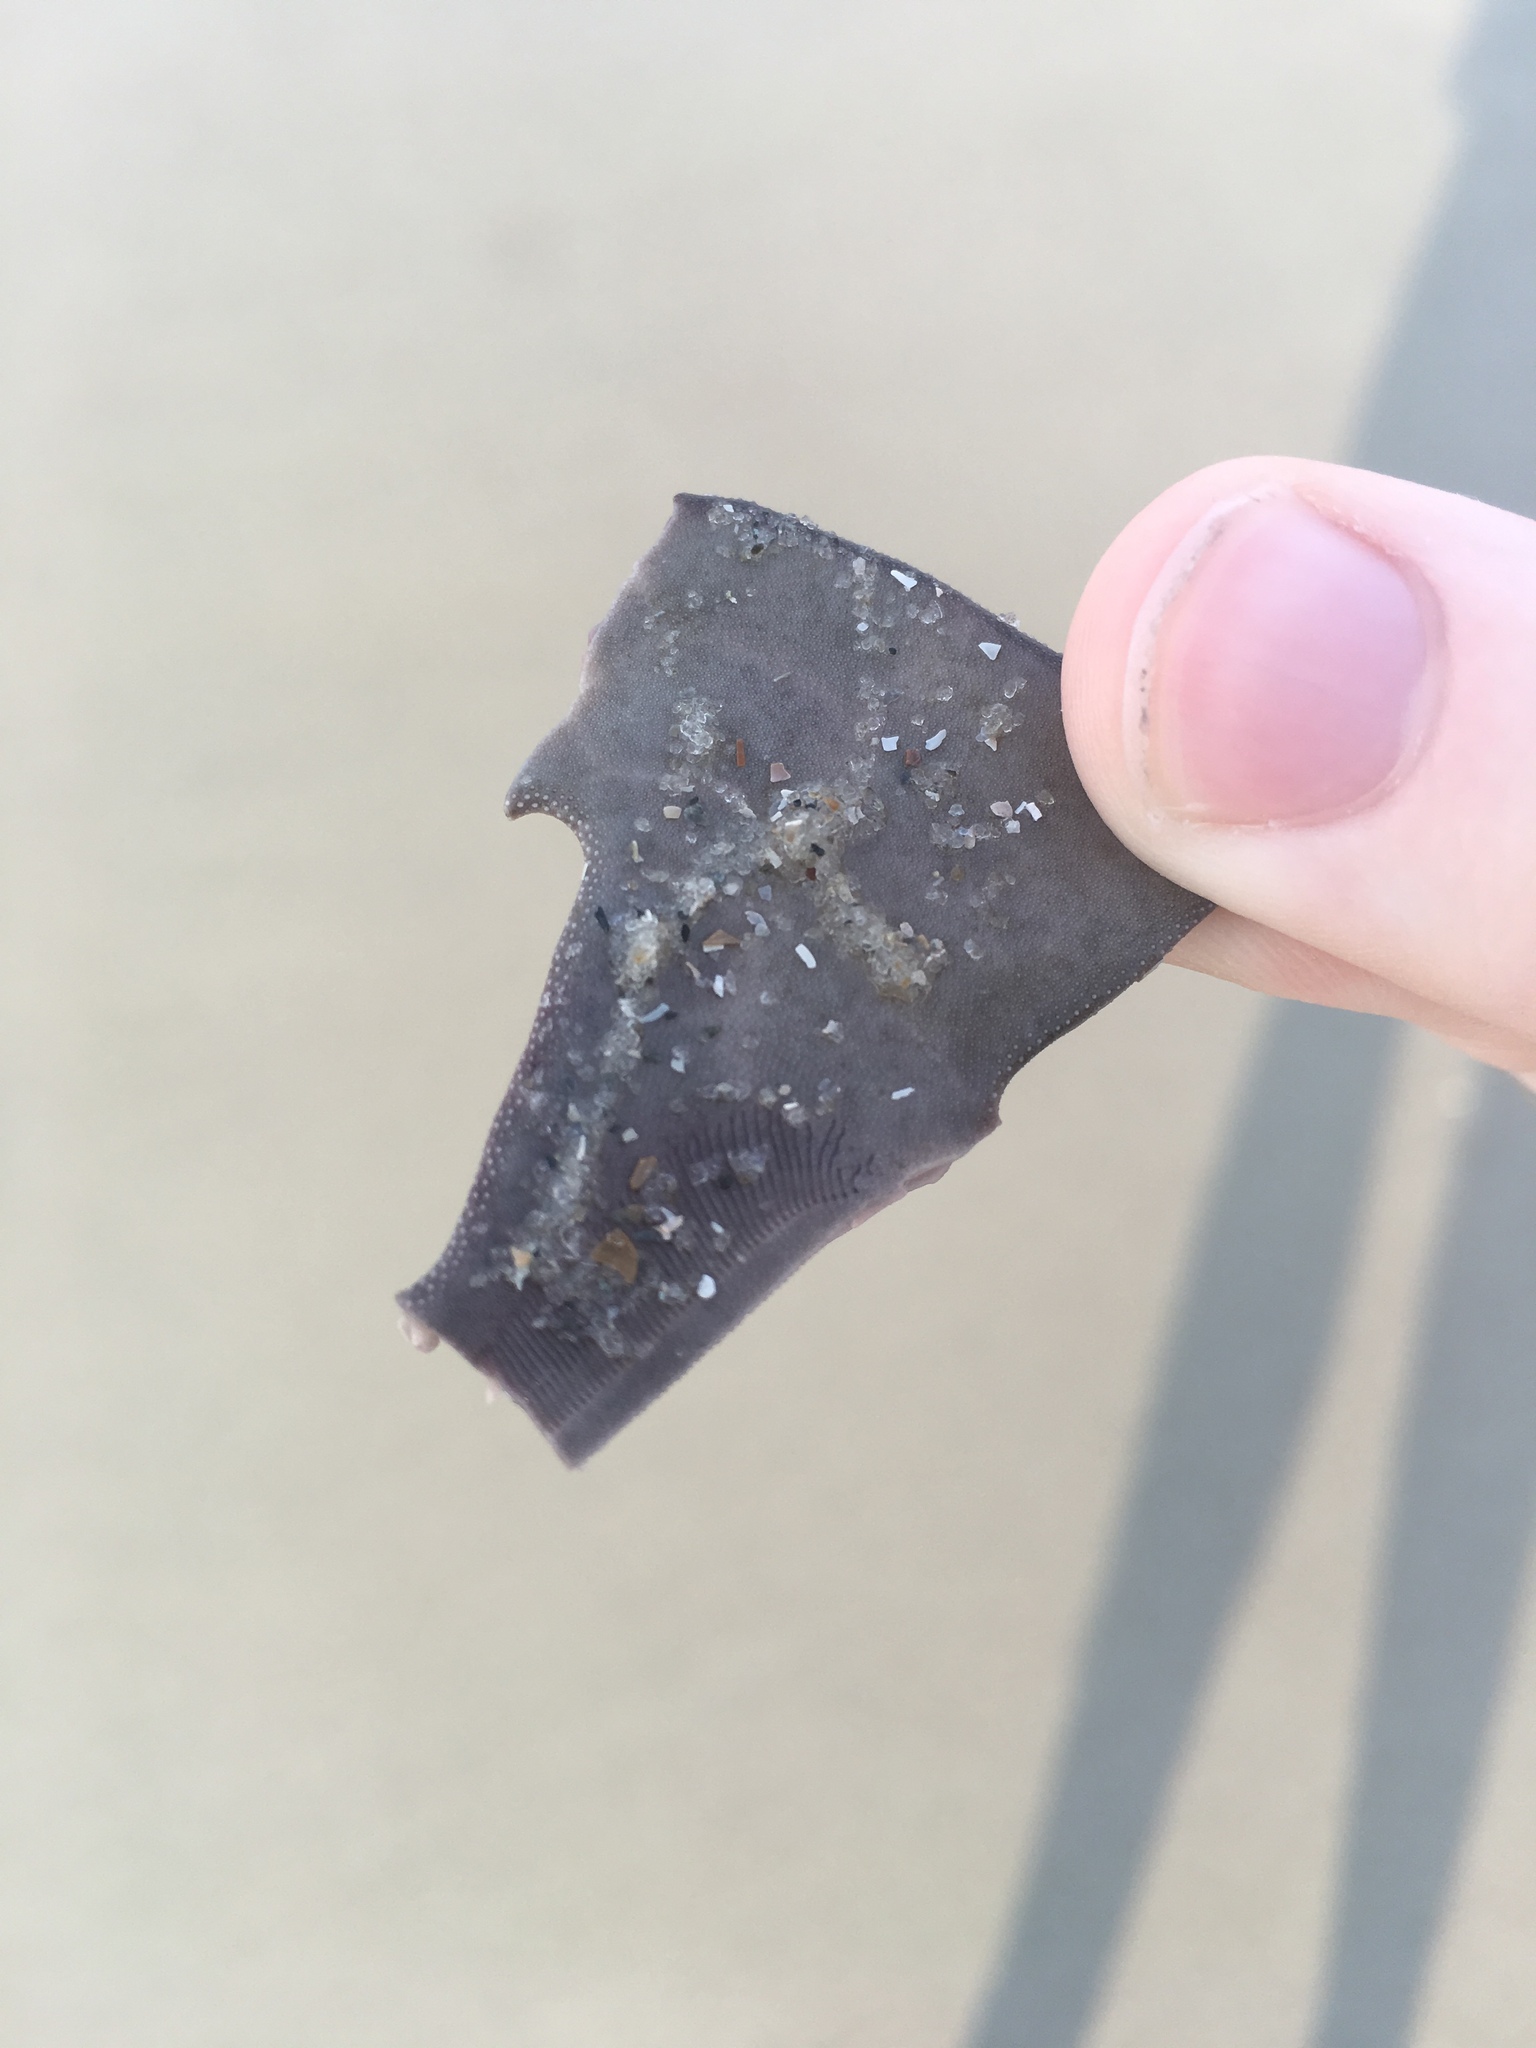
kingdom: Animalia
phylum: Echinodermata
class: Echinoidea
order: Echinolampadacea
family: Mellitidae
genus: Mellita
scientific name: Mellita isometra
